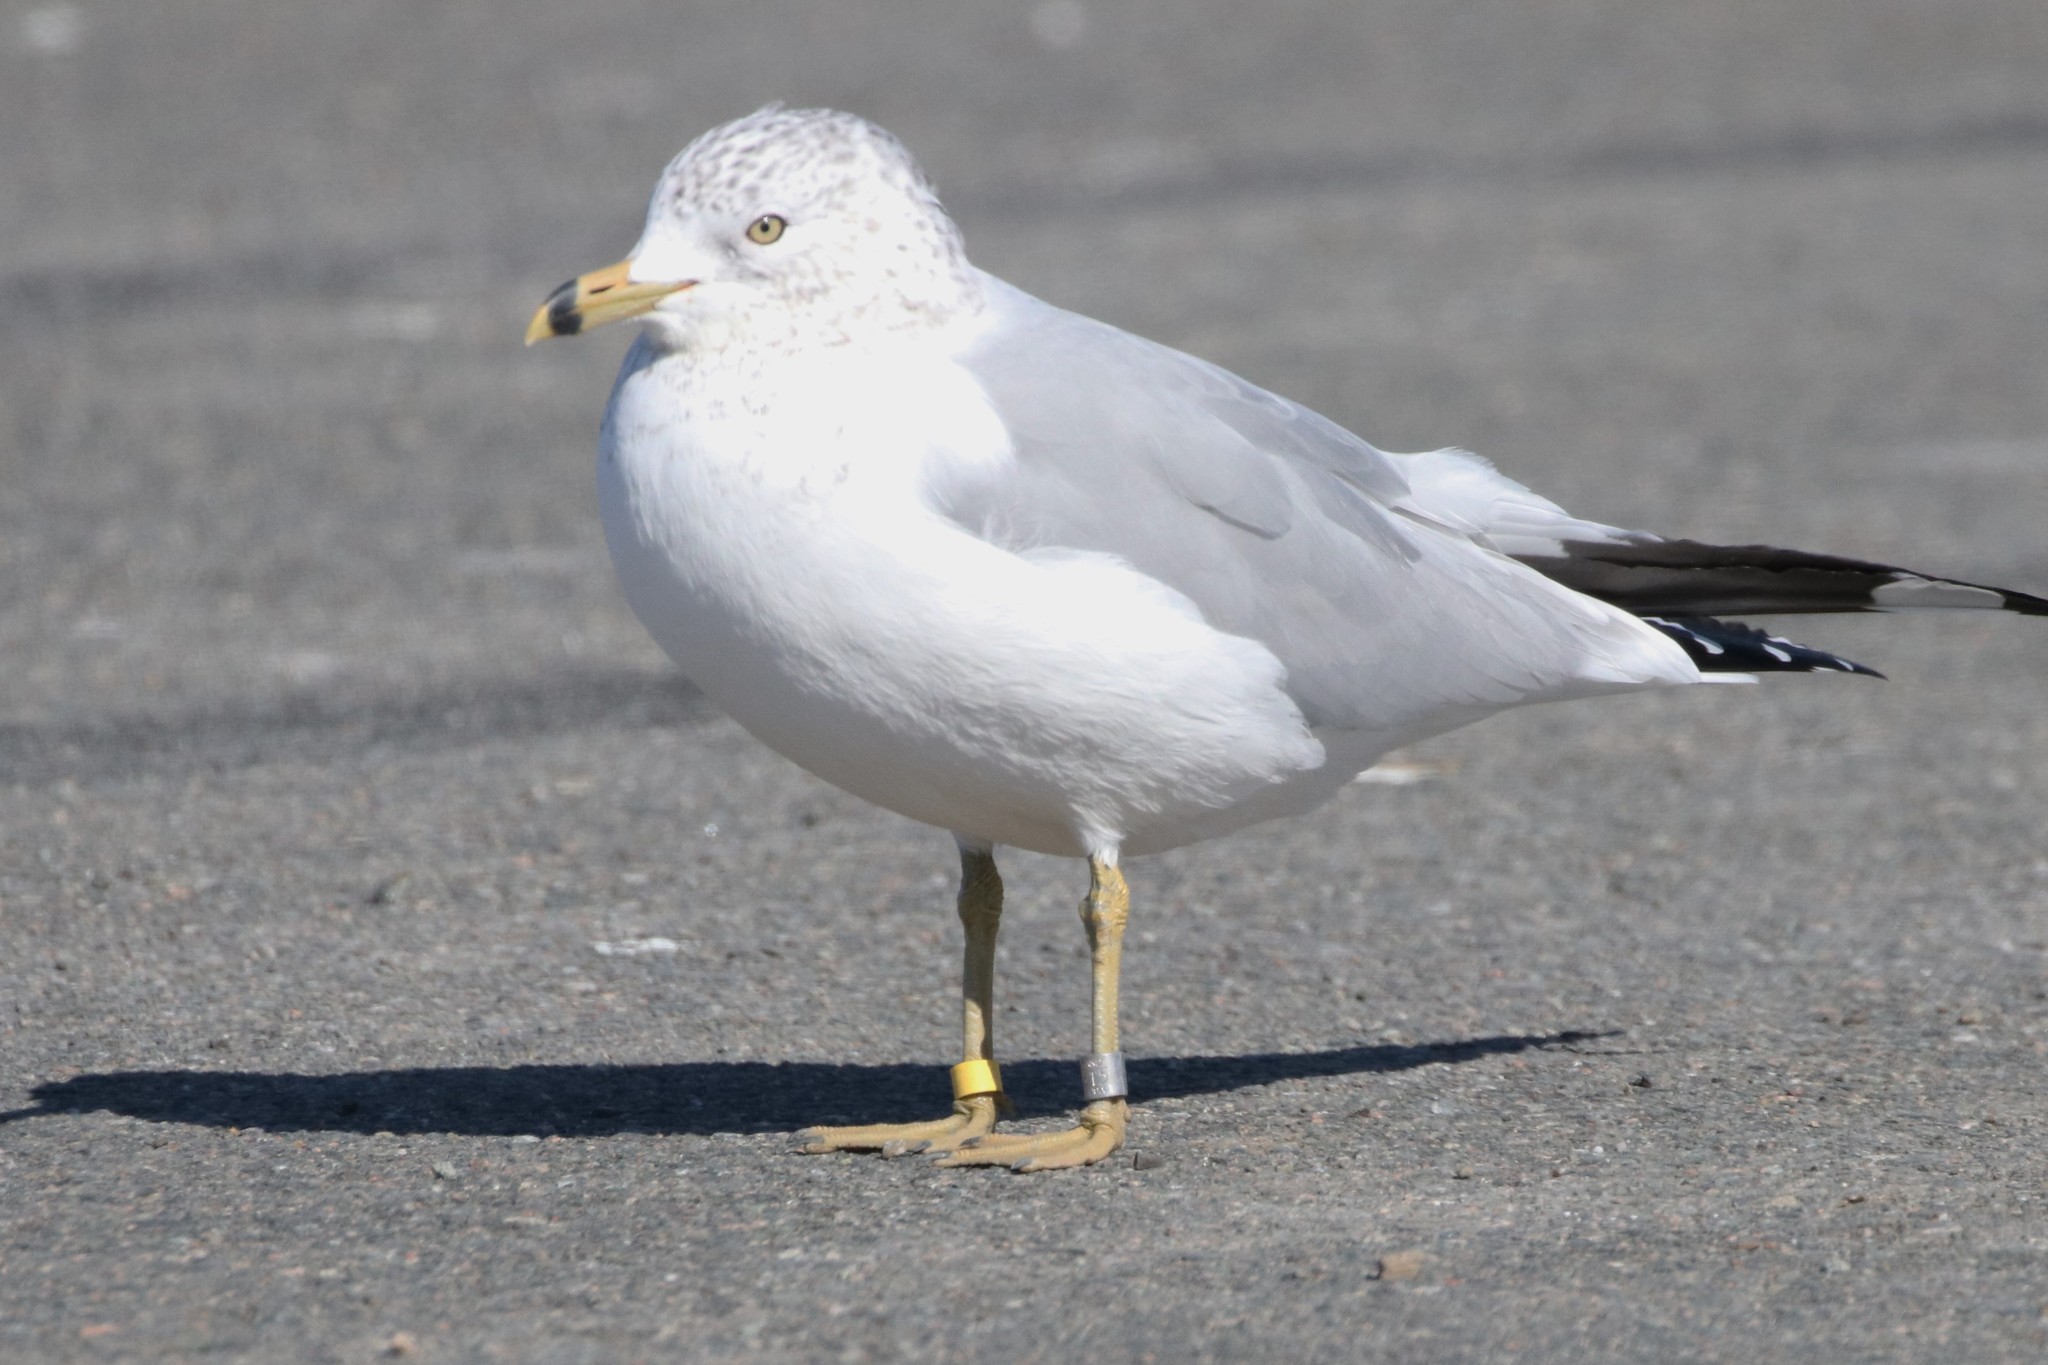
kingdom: Animalia
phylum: Chordata
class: Aves
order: Charadriiformes
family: Laridae
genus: Larus
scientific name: Larus delawarensis
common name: Ring-billed gull
